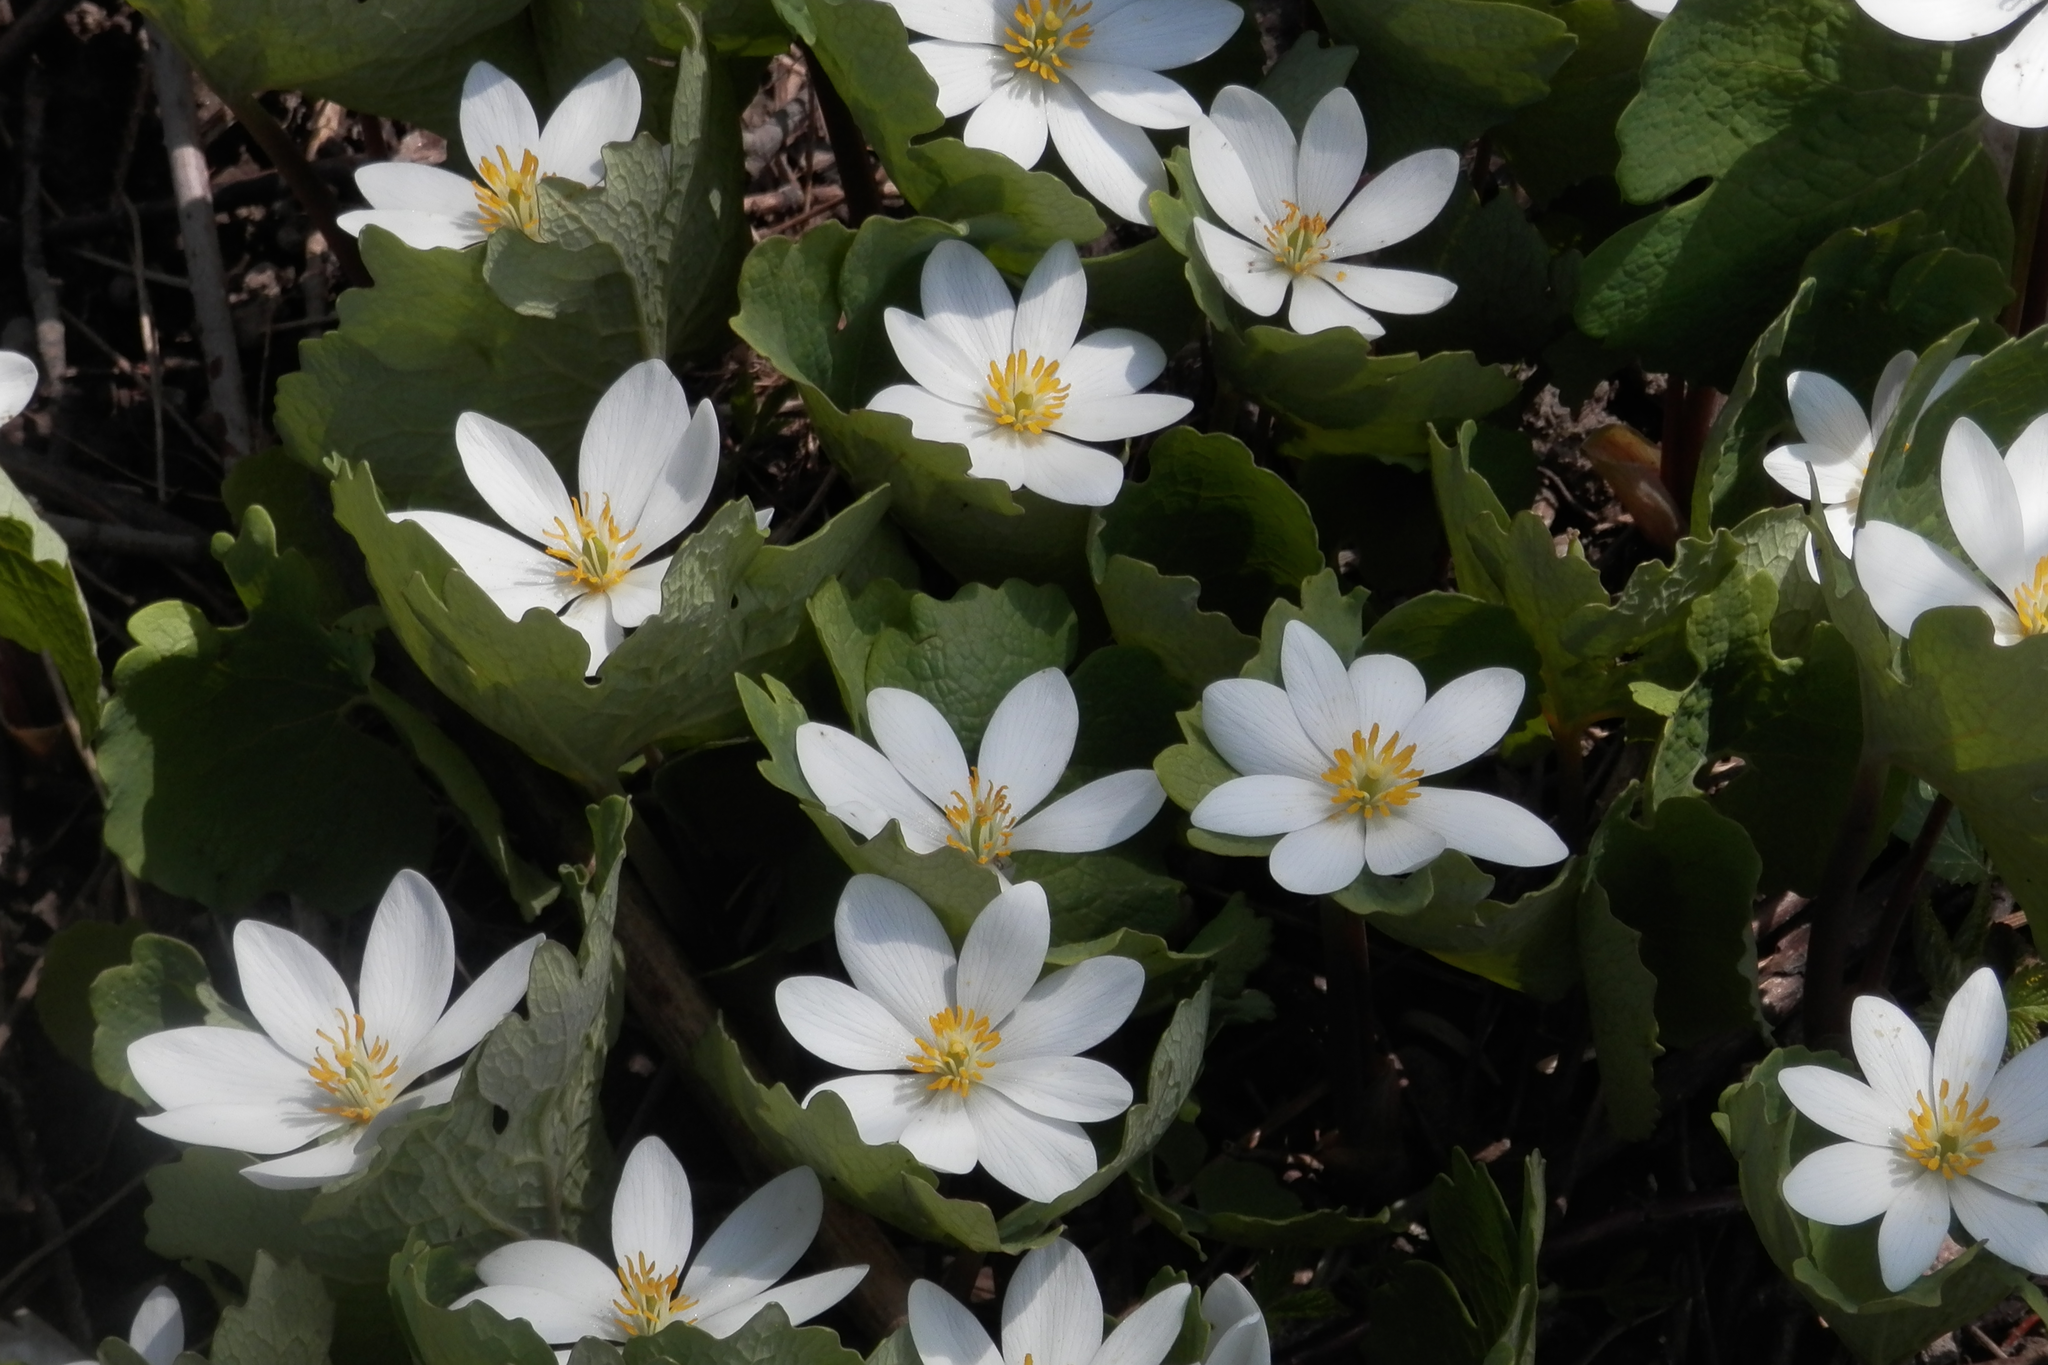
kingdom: Plantae
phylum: Tracheophyta
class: Magnoliopsida
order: Ranunculales
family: Papaveraceae
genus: Sanguinaria
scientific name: Sanguinaria canadensis
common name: Bloodroot
